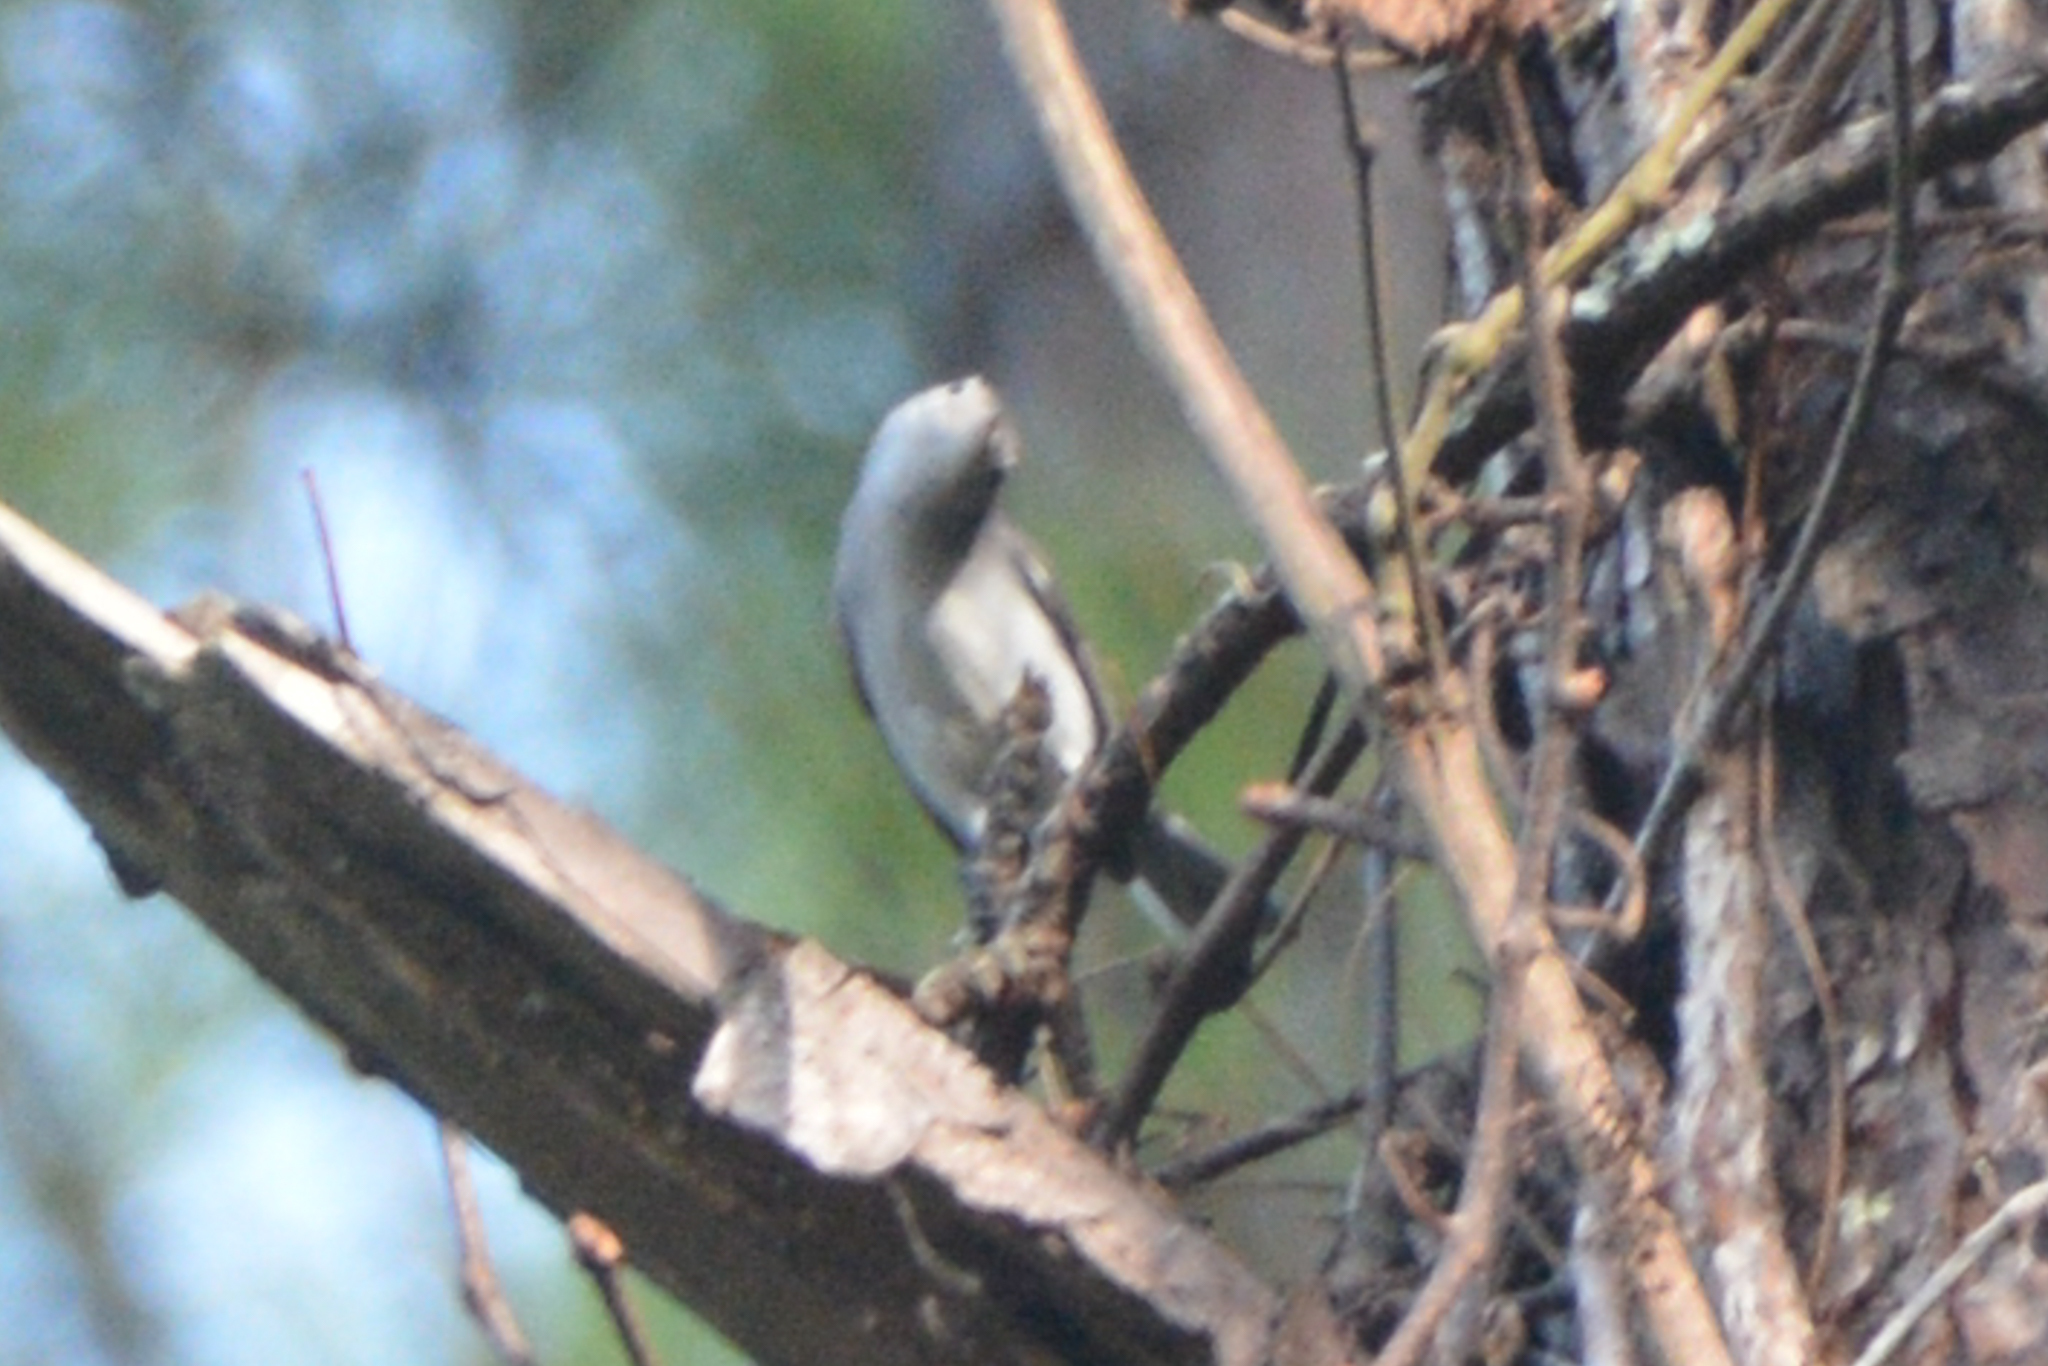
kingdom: Animalia
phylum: Chordata
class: Aves
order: Passeriformes
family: Polioptilidae
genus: Polioptila
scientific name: Polioptila caerulea
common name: Blue-gray gnatcatcher
